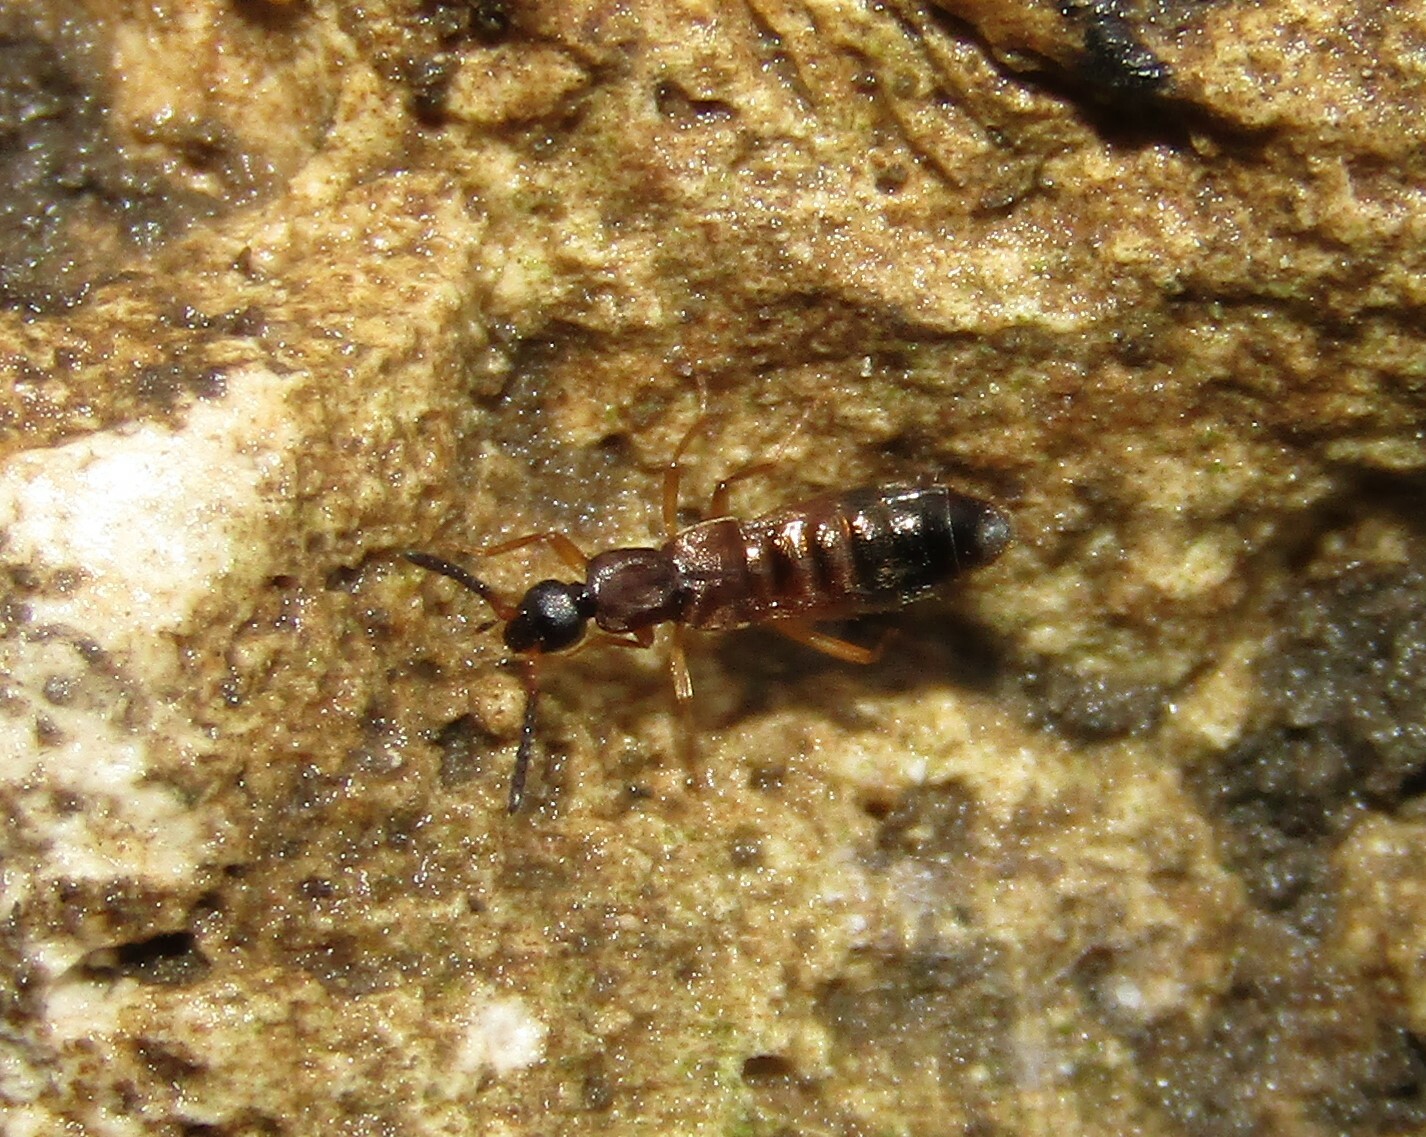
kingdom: Animalia
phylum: Arthropoda
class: Insecta
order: Coleoptera
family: Staphylinidae
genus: Drusilla
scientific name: Drusilla canaliculata
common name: Rove beetle
